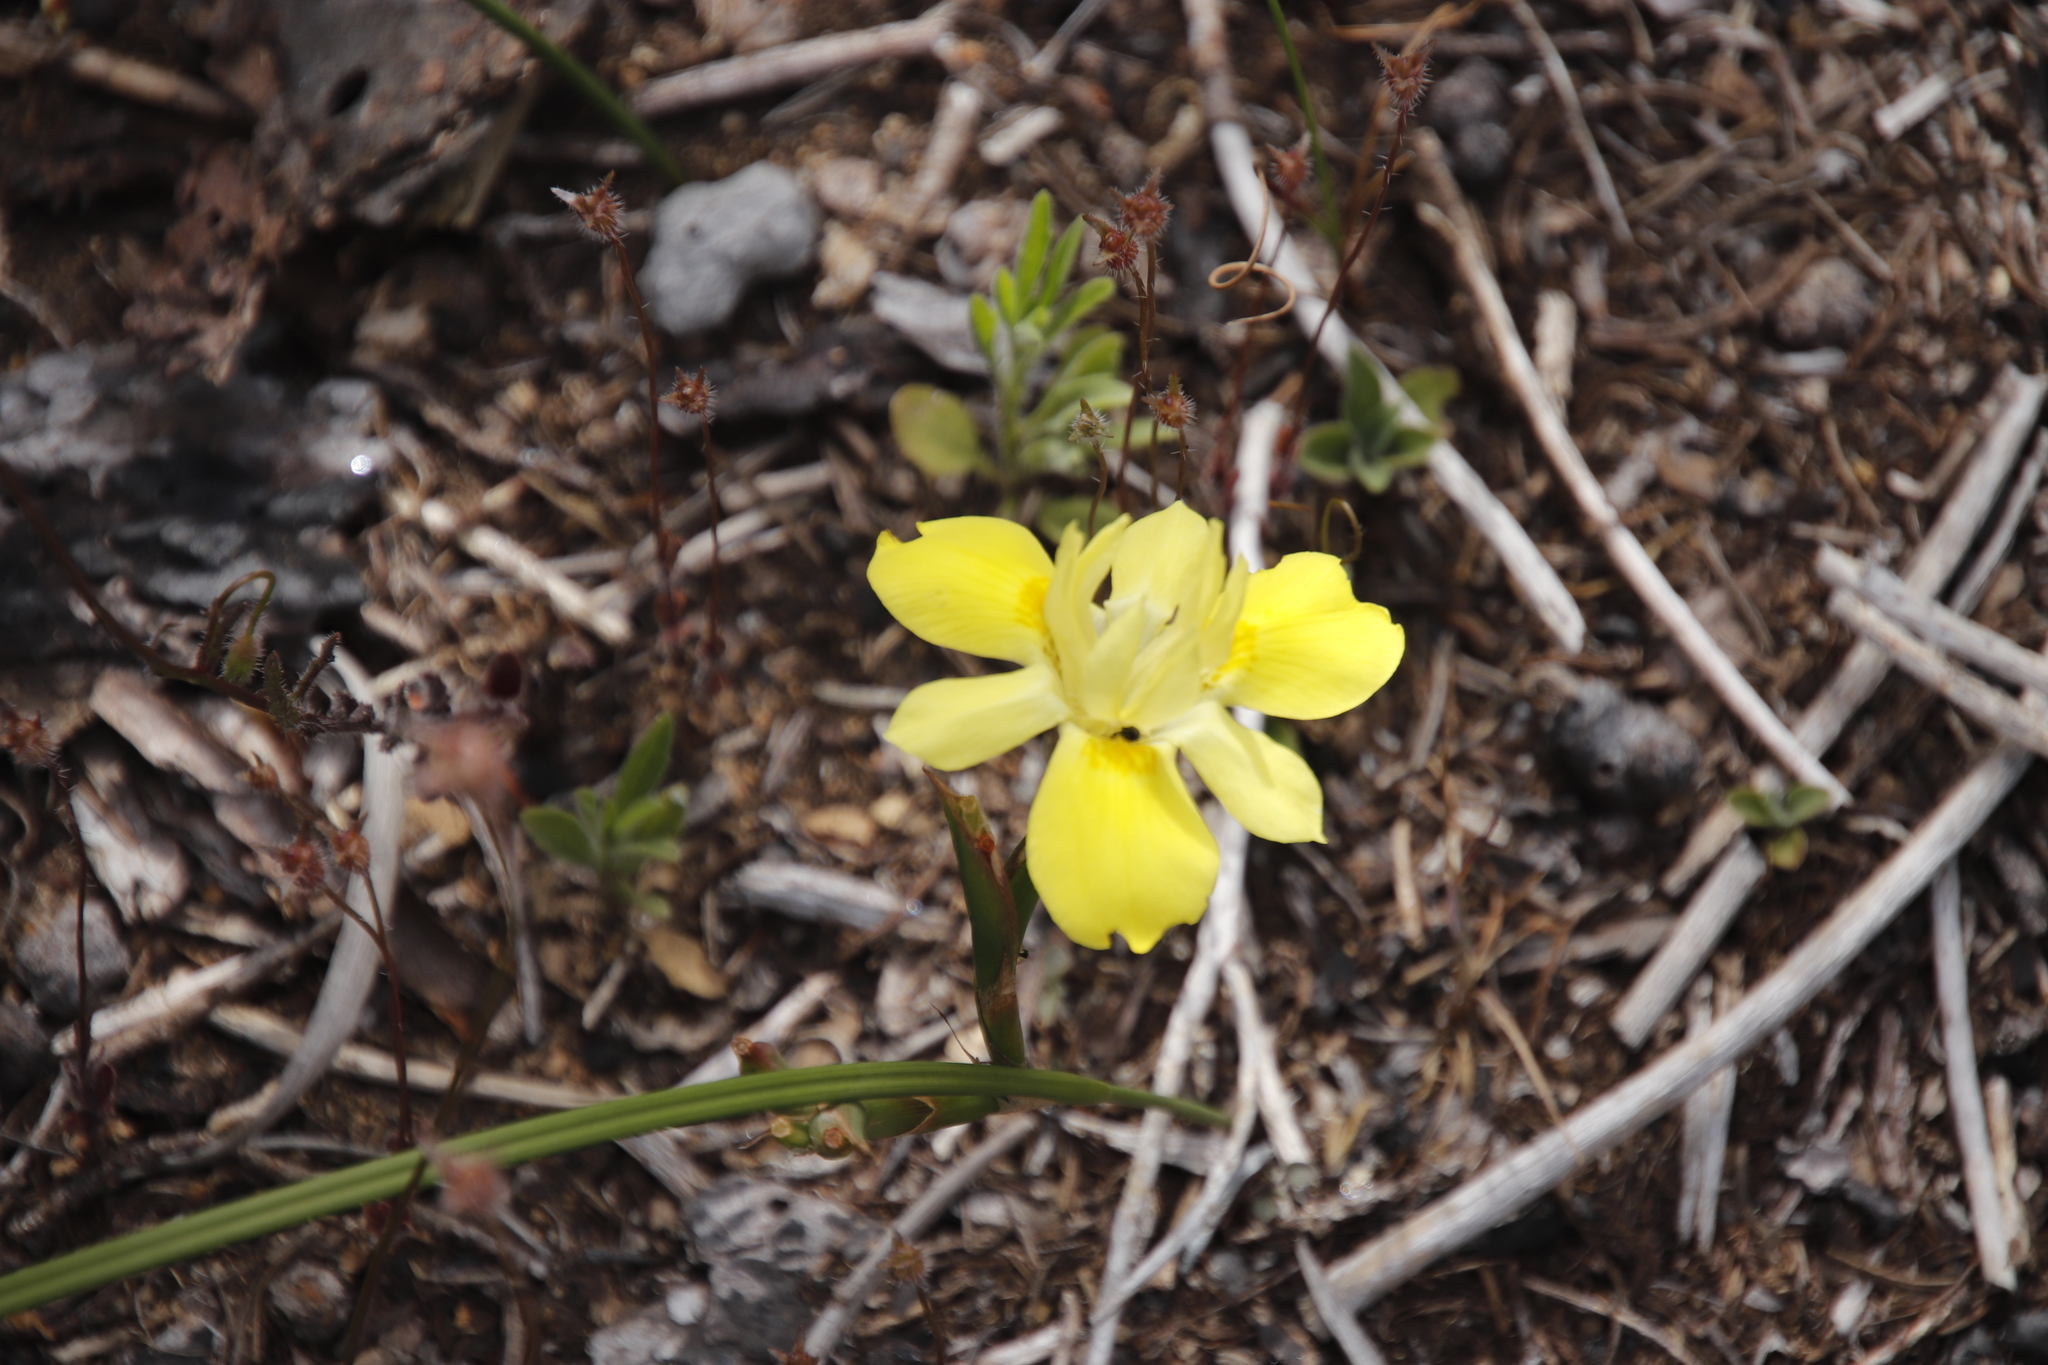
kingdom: Plantae
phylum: Tracheophyta
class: Liliopsida
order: Asparagales
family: Iridaceae
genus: Moraea
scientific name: Moraea fugax
